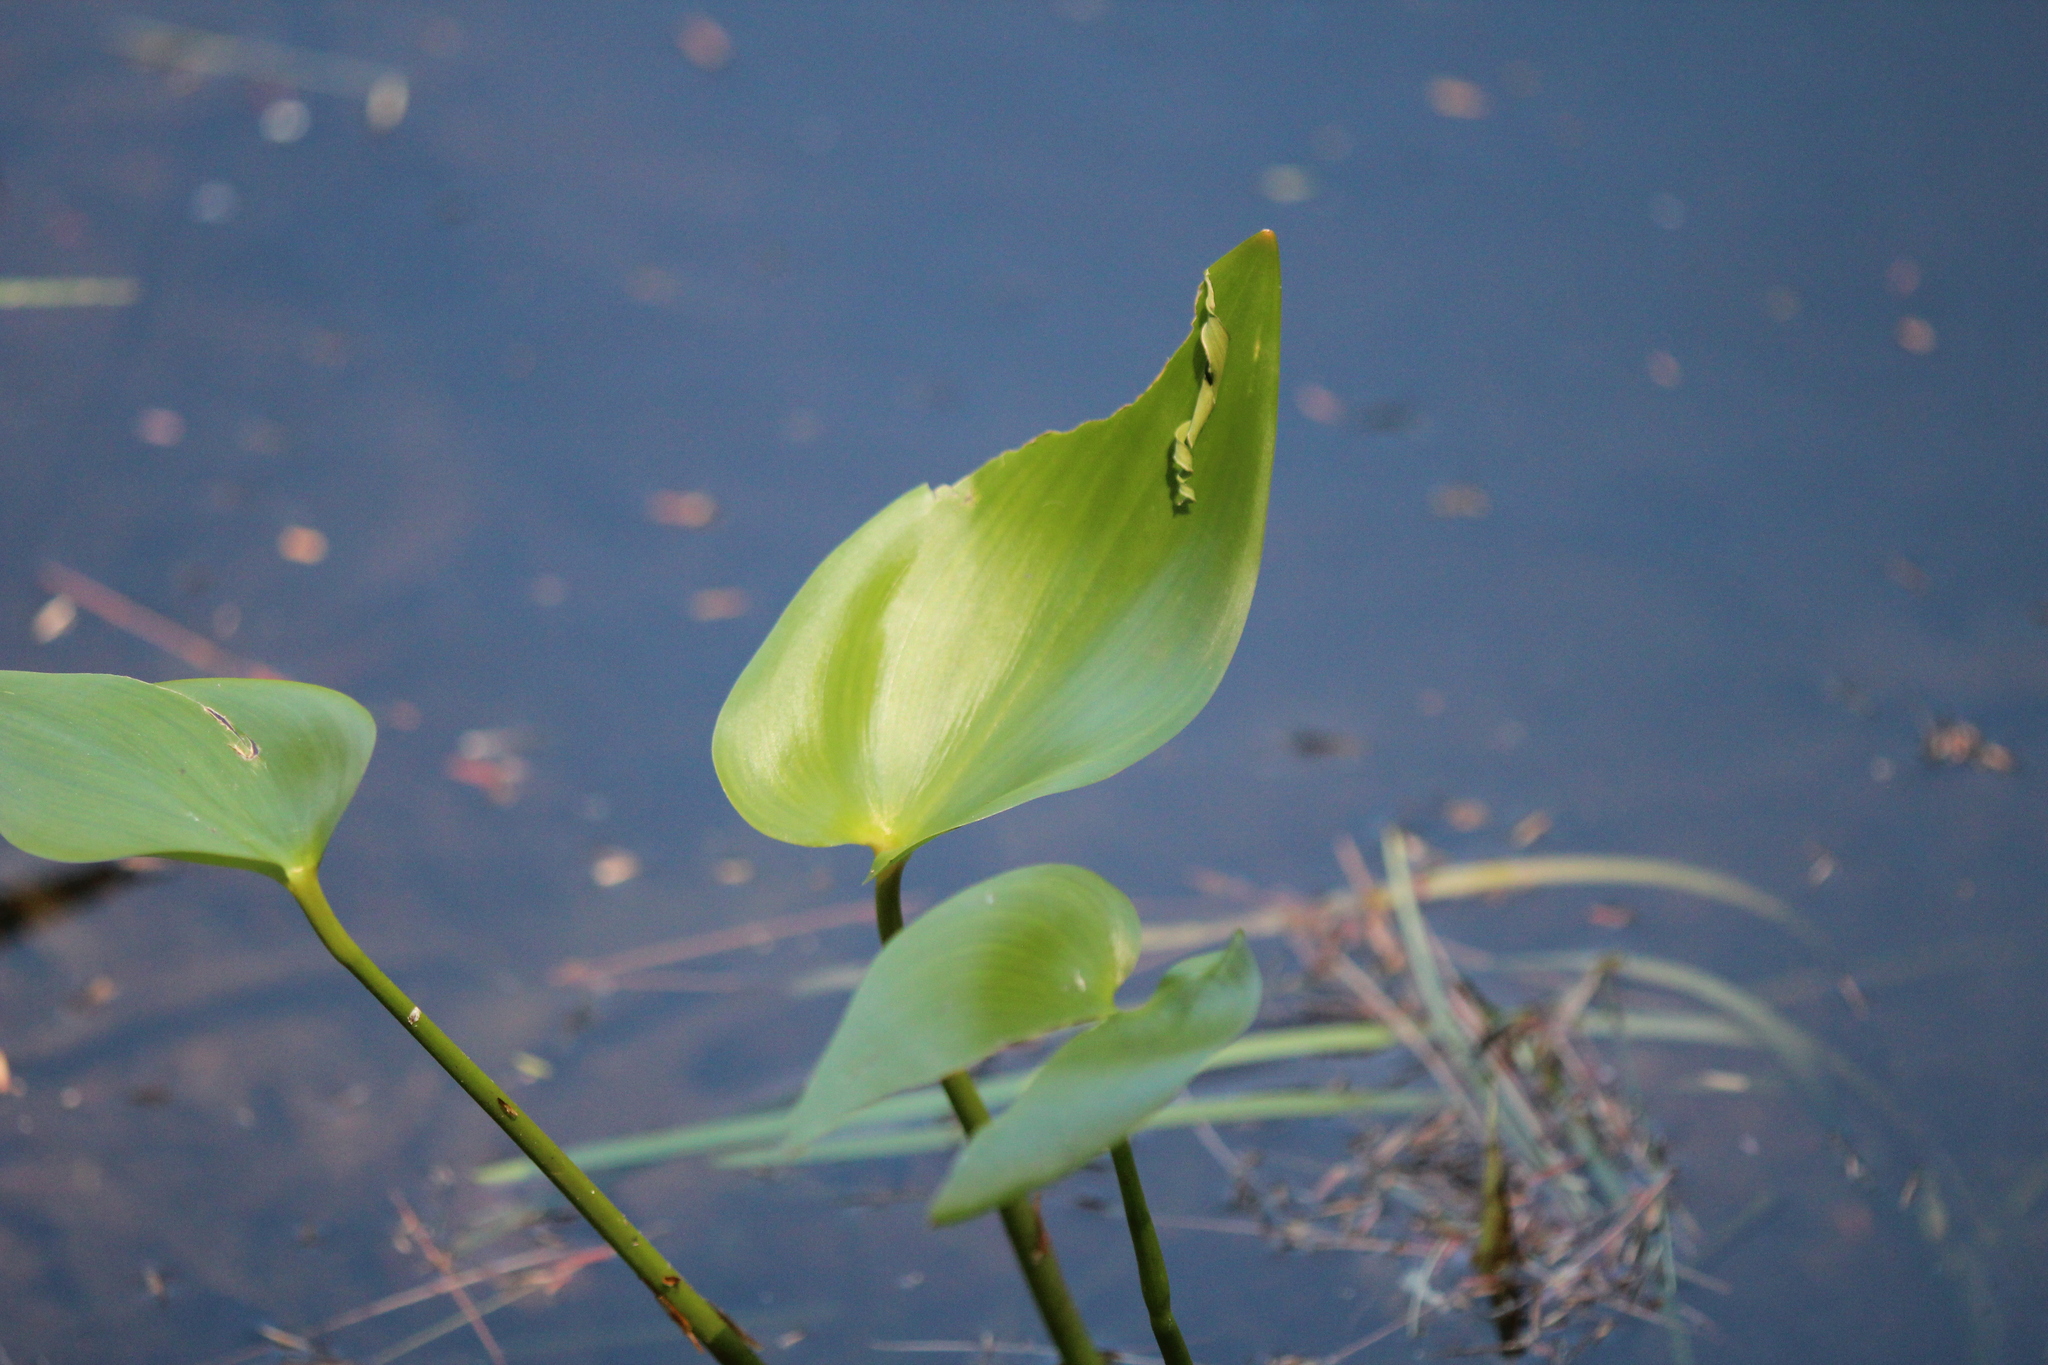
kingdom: Plantae
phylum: Tracheophyta
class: Liliopsida
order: Commelinales
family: Pontederiaceae
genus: Pontederia
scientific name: Pontederia cordata
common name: Pickerelweed
